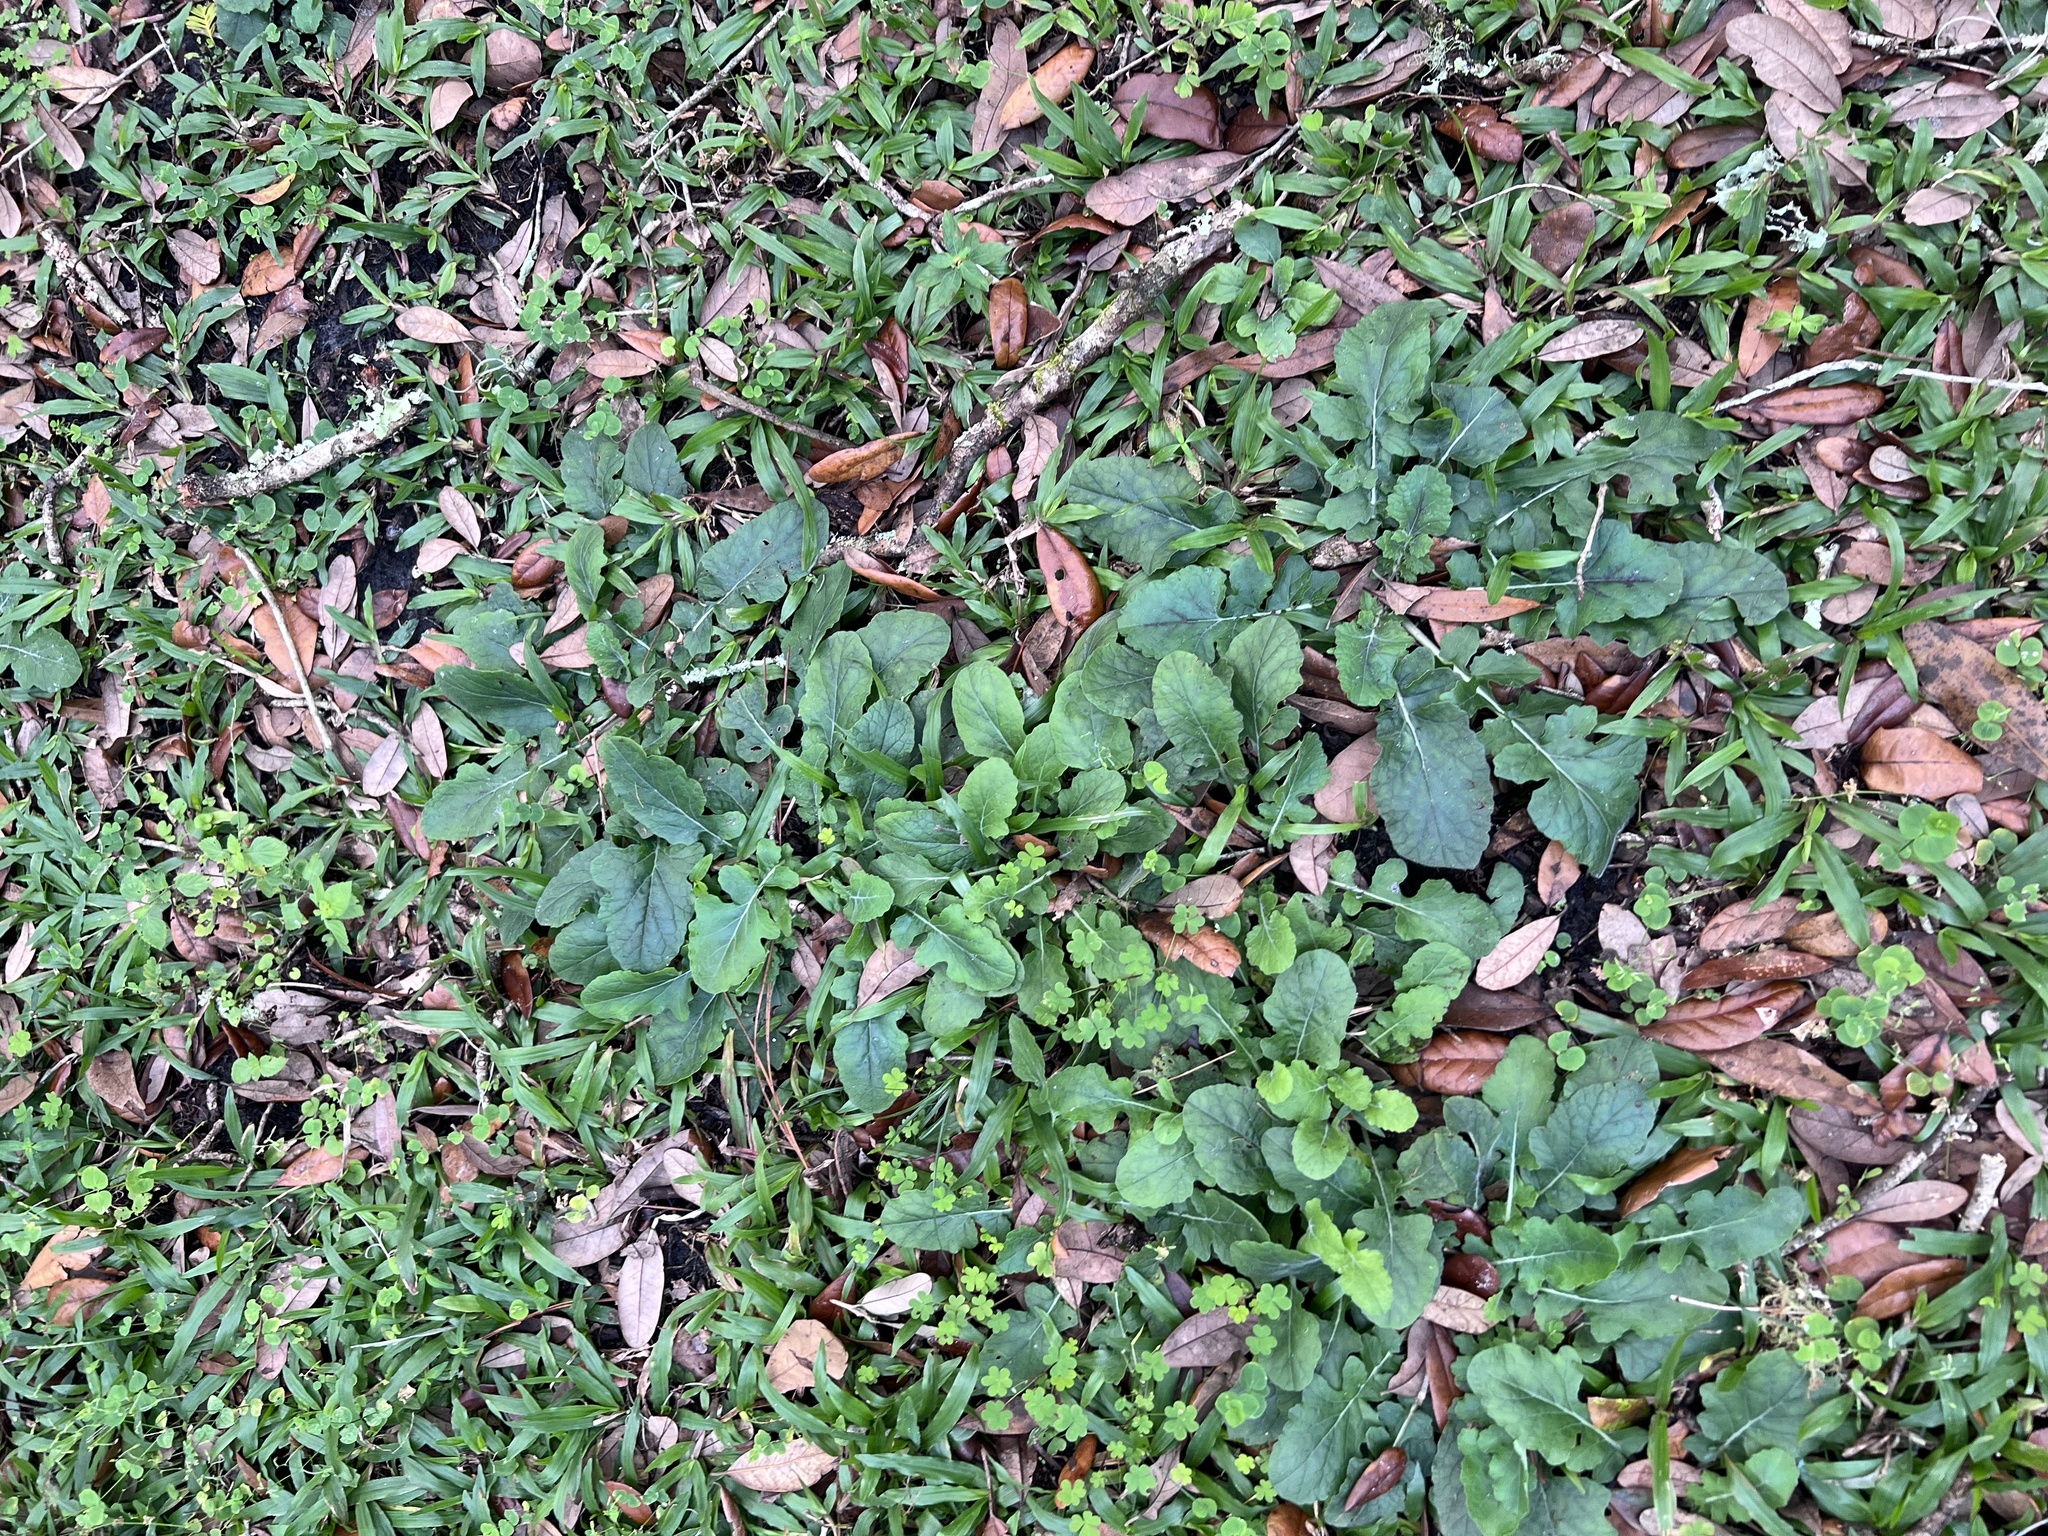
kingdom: Plantae
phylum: Tracheophyta
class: Magnoliopsida
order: Lamiales
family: Lamiaceae
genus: Salvia
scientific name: Salvia lyrata
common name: Cancerweed
